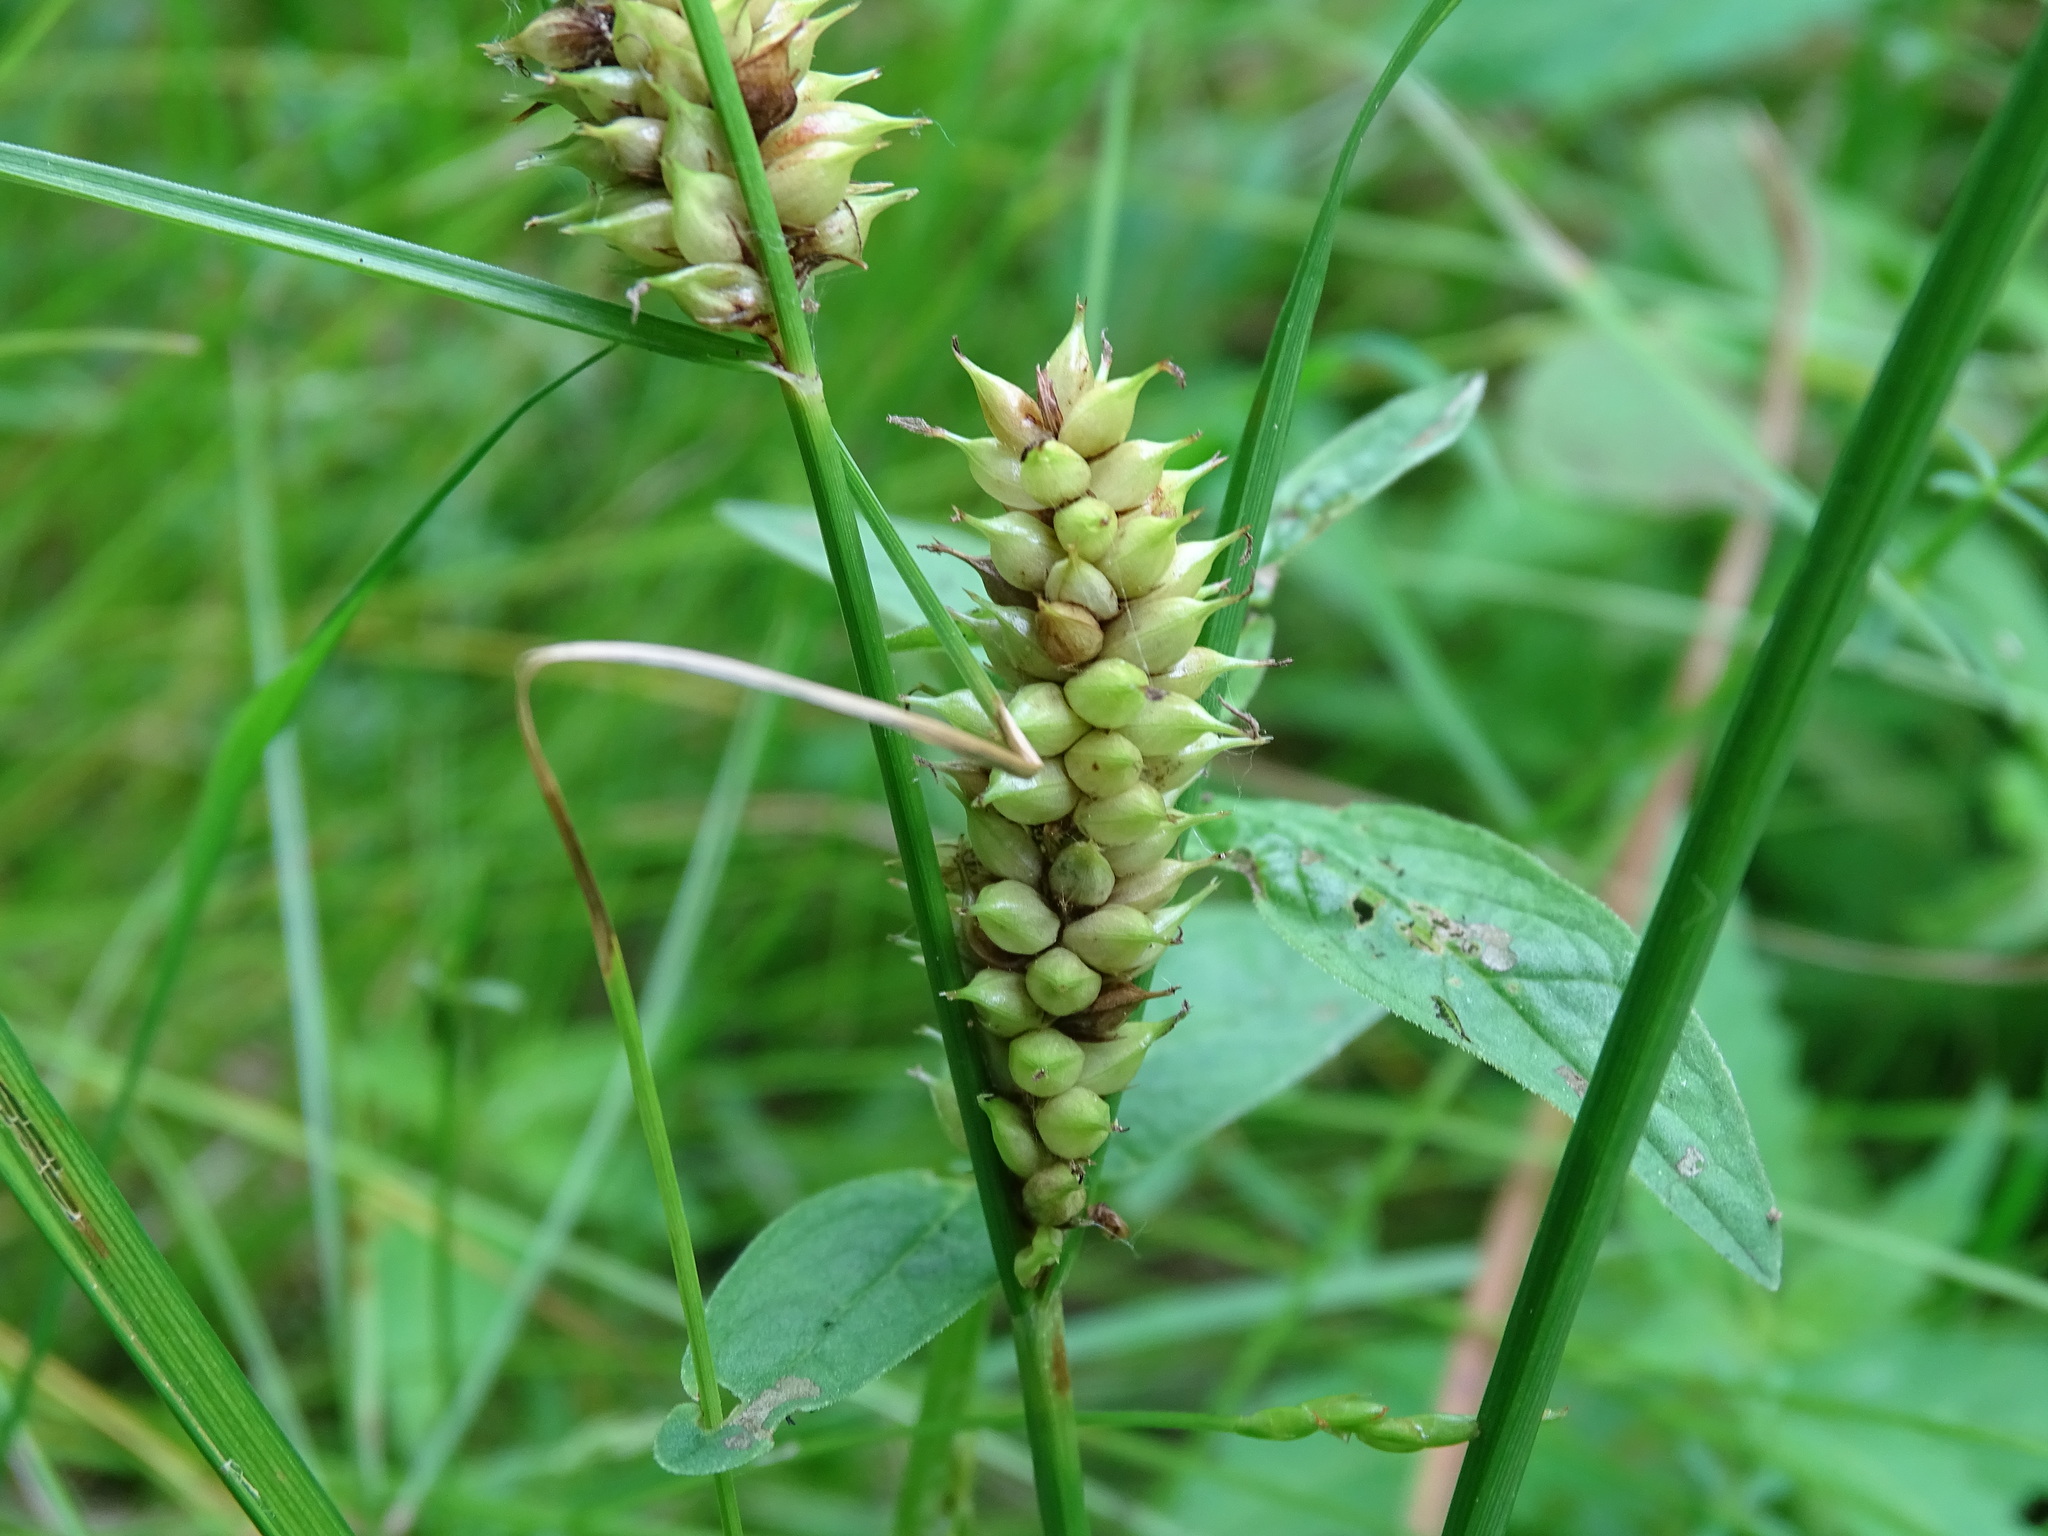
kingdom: Plantae
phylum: Tracheophyta
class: Liliopsida
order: Poales
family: Cyperaceae
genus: Carex
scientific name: Carex utriculata
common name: Beaked sedge
